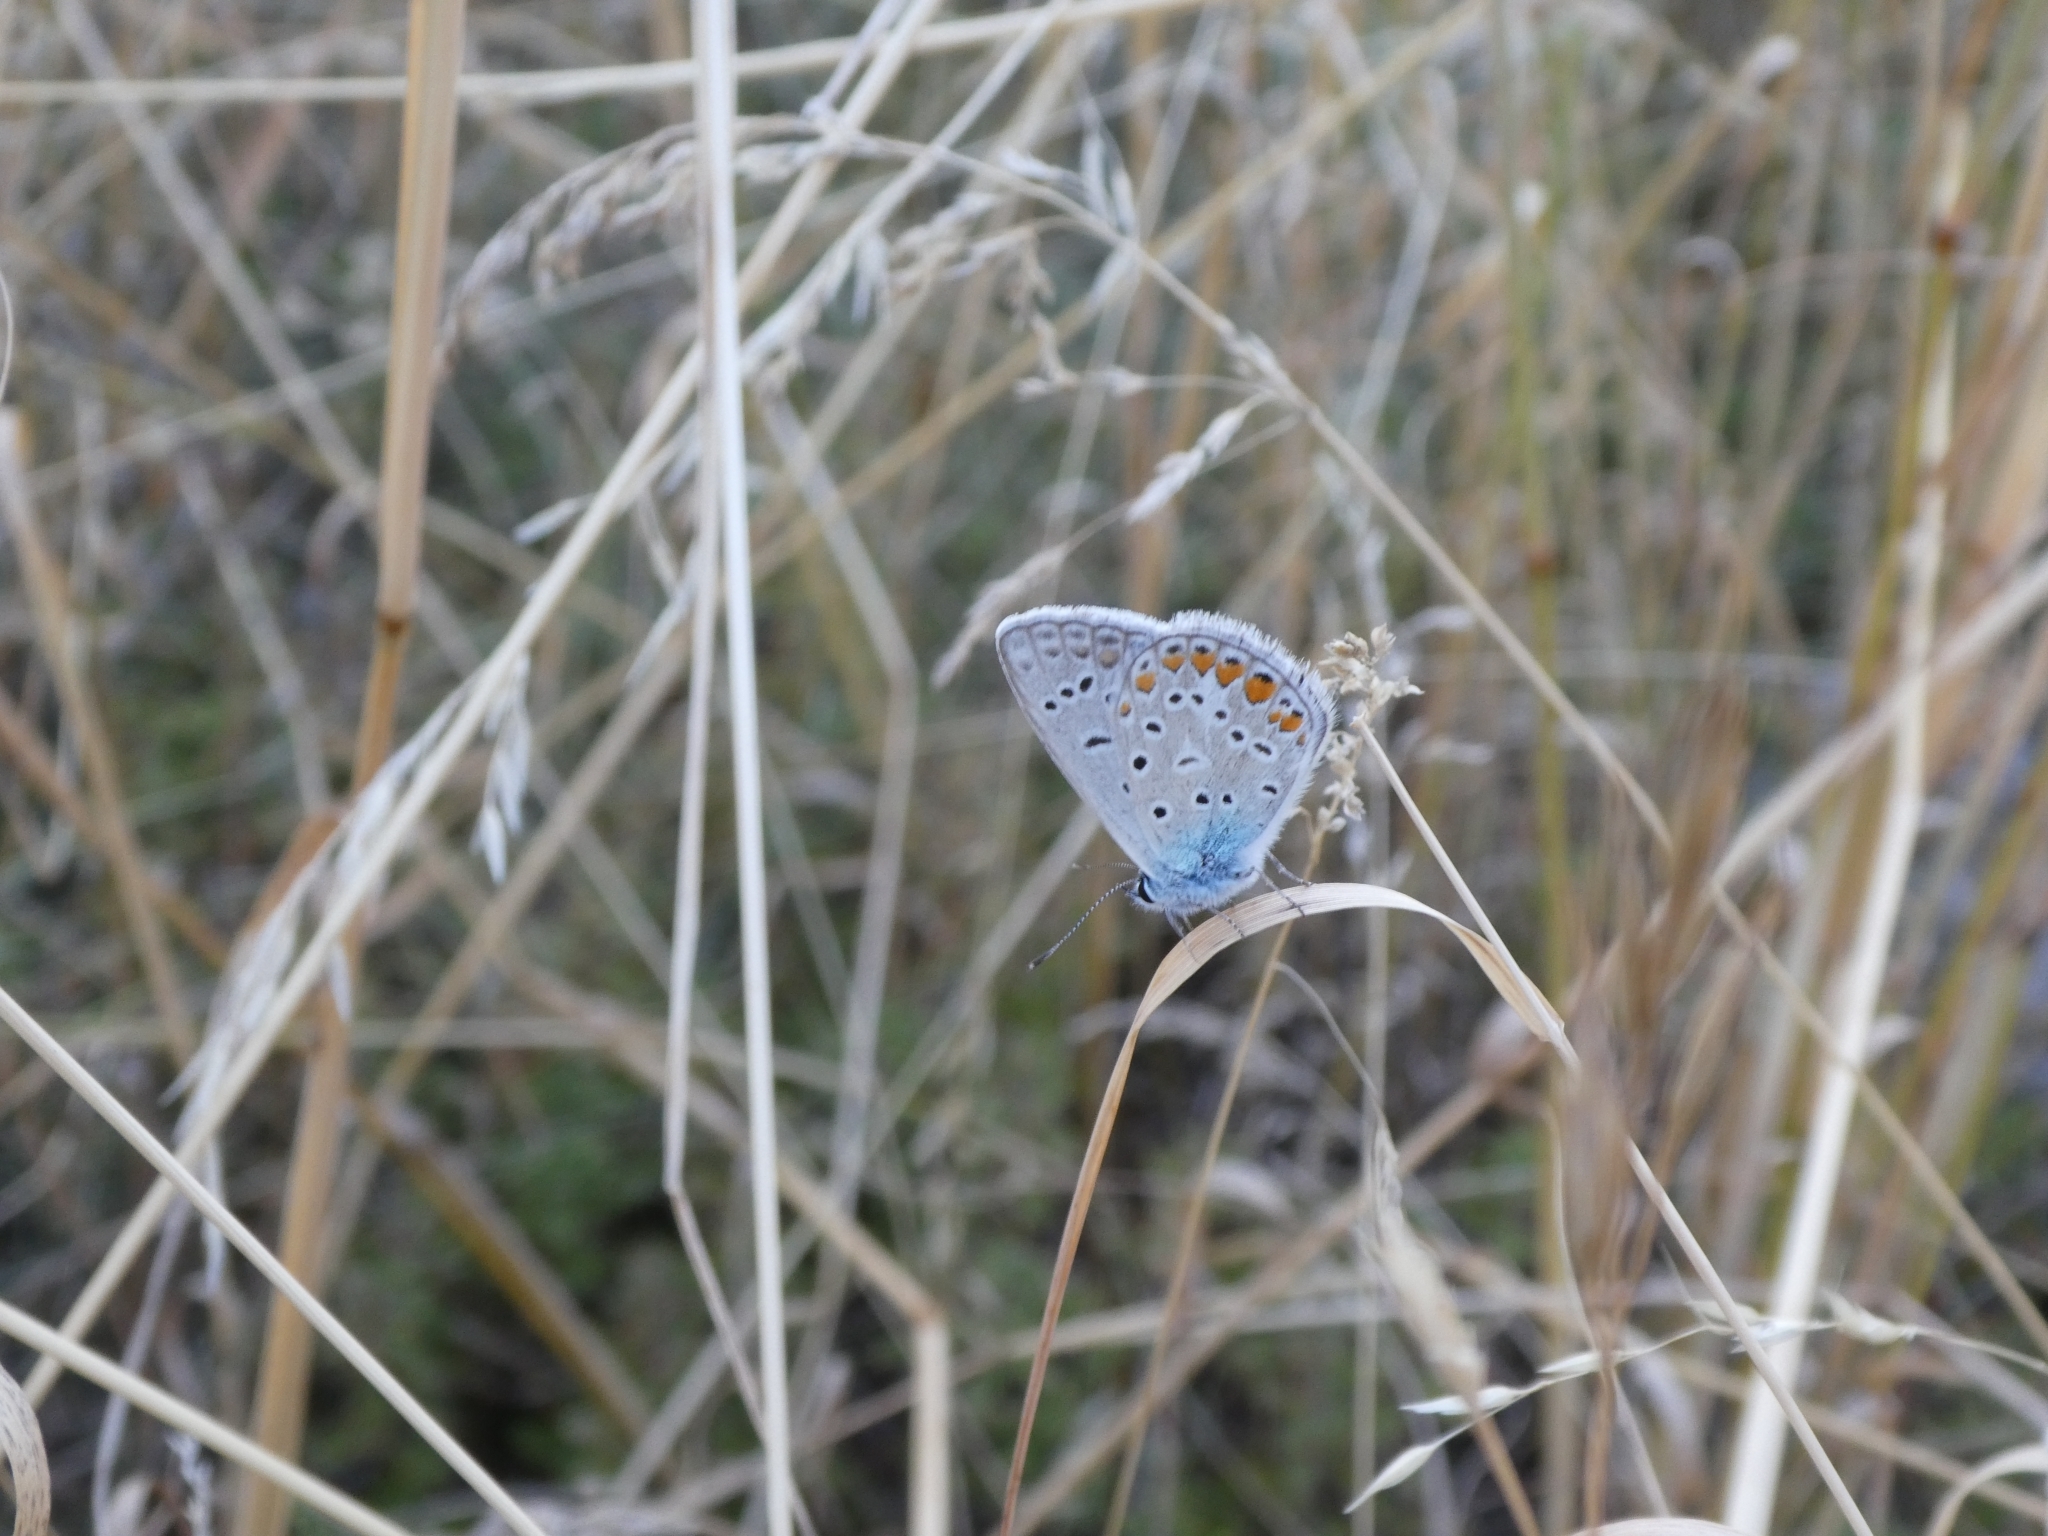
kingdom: Animalia
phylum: Arthropoda
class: Insecta
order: Lepidoptera
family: Lycaenidae
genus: Polyommatus
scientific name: Polyommatus icarus
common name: Common blue
